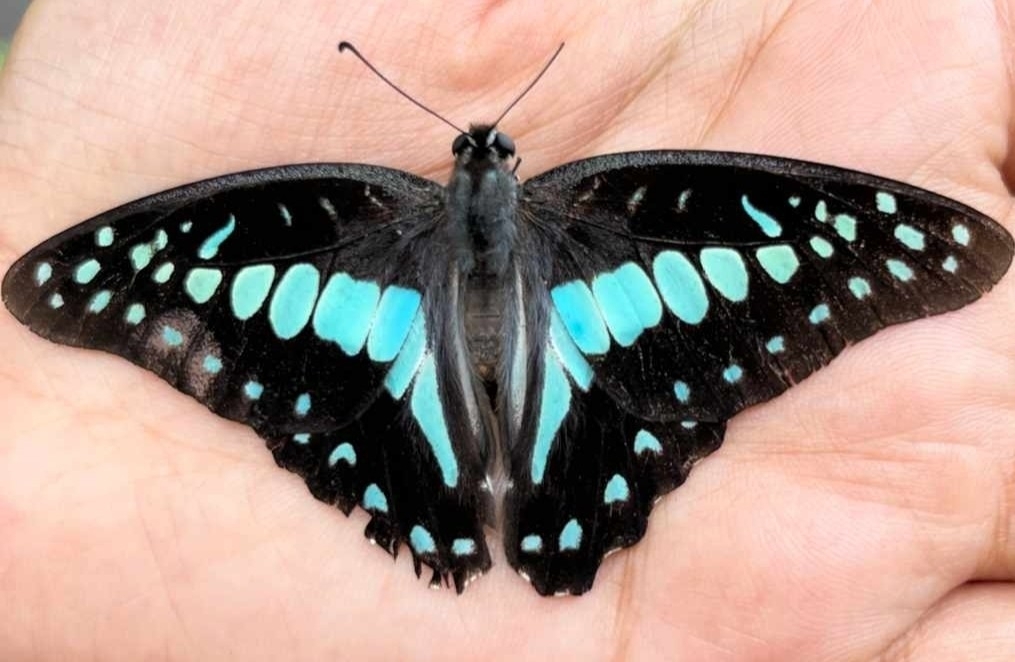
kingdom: Animalia
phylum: Arthropoda
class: Insecta
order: Lepidoptera
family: Papilionidae
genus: Graphium
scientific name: Graphium doson
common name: Common jay
